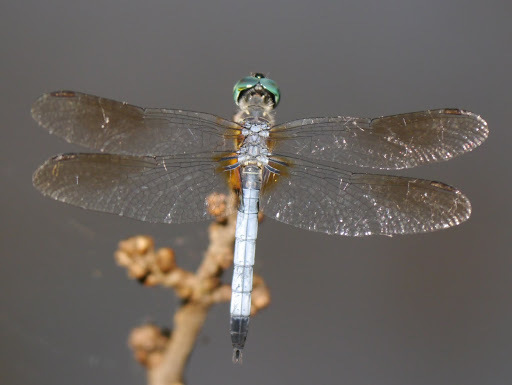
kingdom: Animalia
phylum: Arthropoda
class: Insecta
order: Odonata
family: Libellulidae
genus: Pachydiplax
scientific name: Pachydiplax longipennis
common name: Blue dasher
